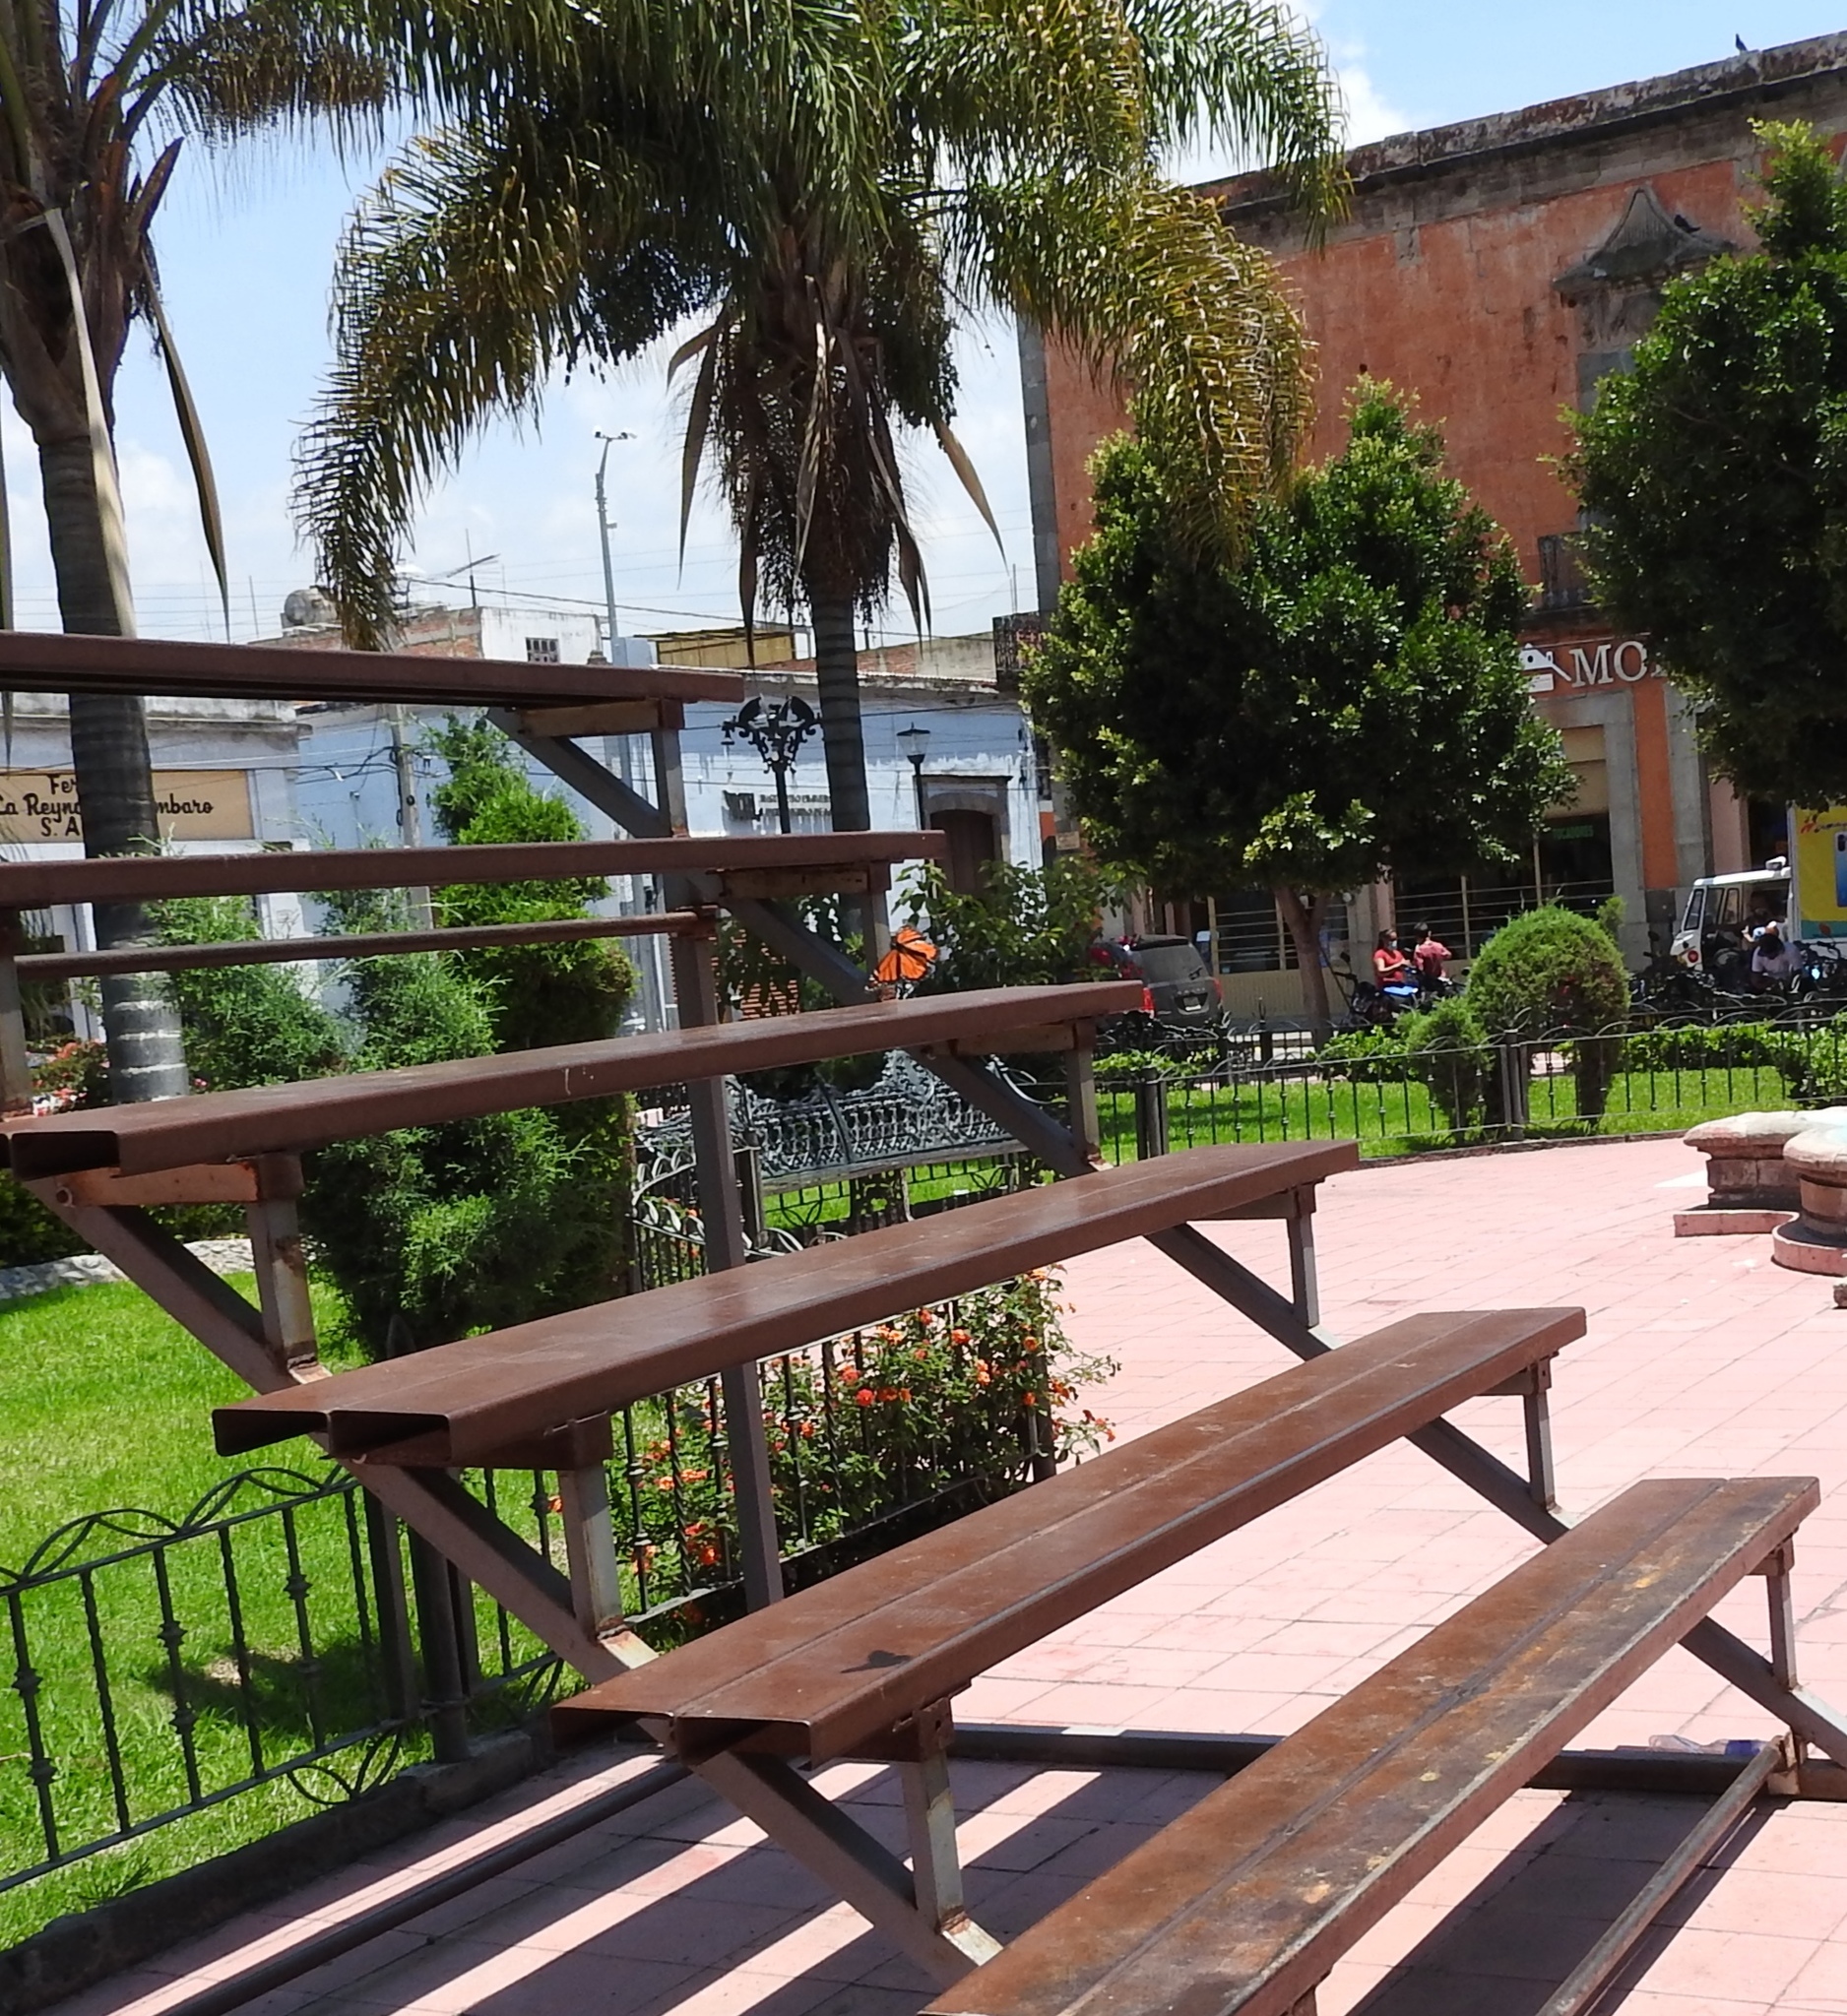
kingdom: Animalia
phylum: Arthropoda
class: Insecta
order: Lepidoptera
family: Nymphalidae
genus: Danaus
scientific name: Danaus plexippus
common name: Monarch
